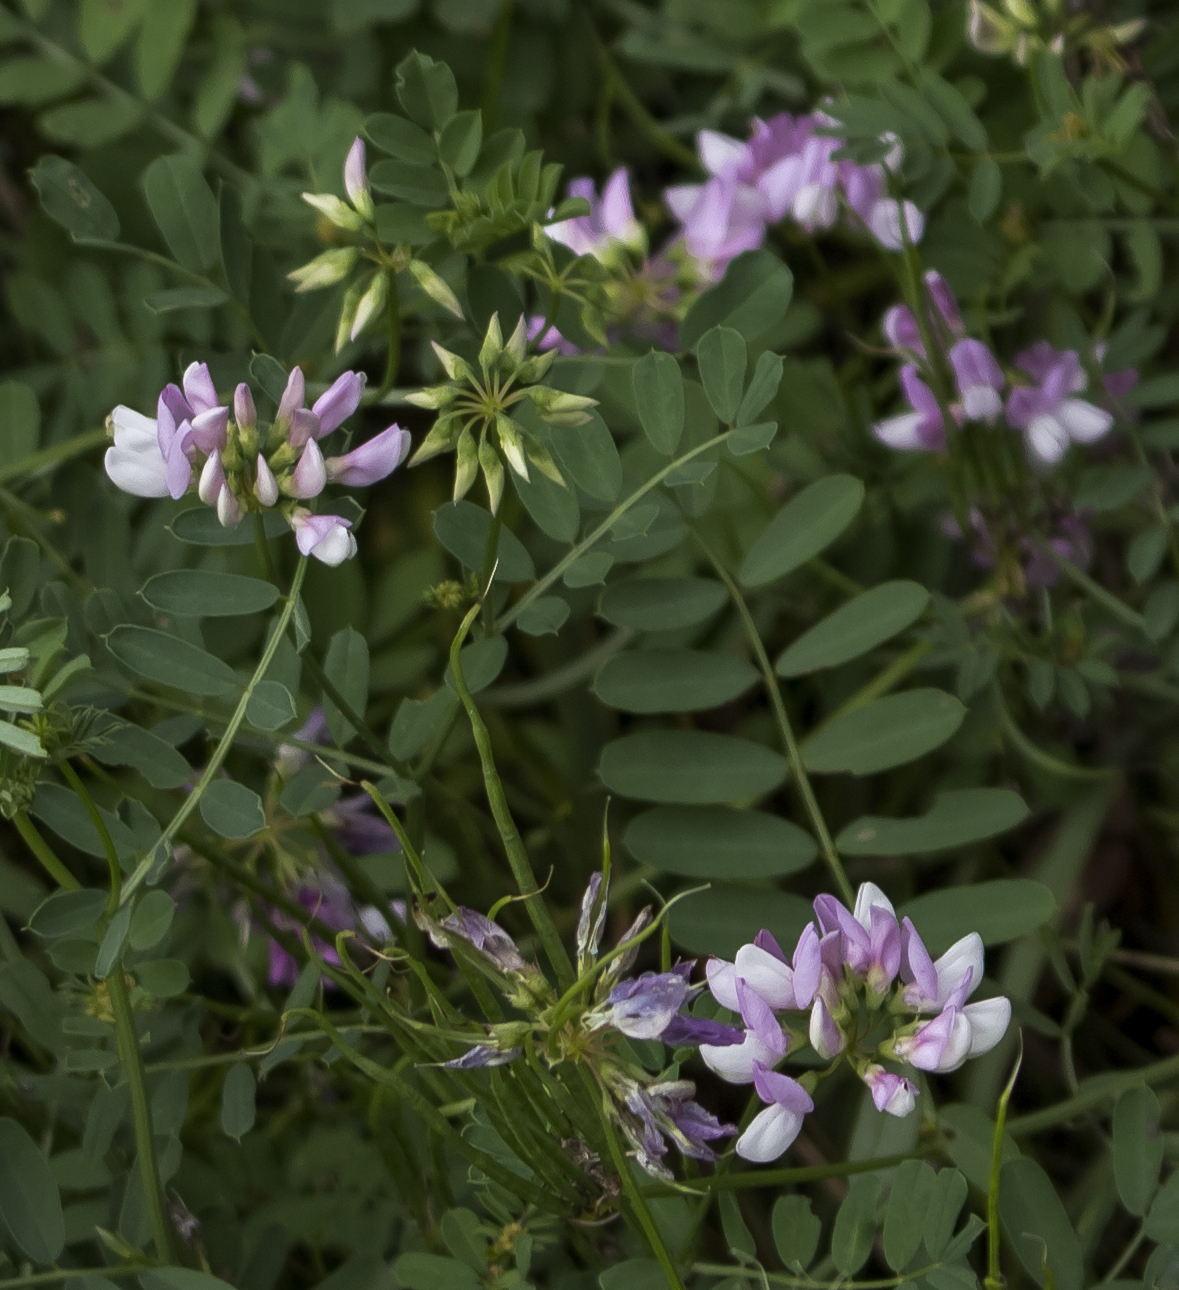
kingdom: Plantae
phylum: Tracheophyta
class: Magnoliopsida
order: Fabales
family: Fabaceae
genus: Coronilla
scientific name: Coronilla varia
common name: Crownvetch
